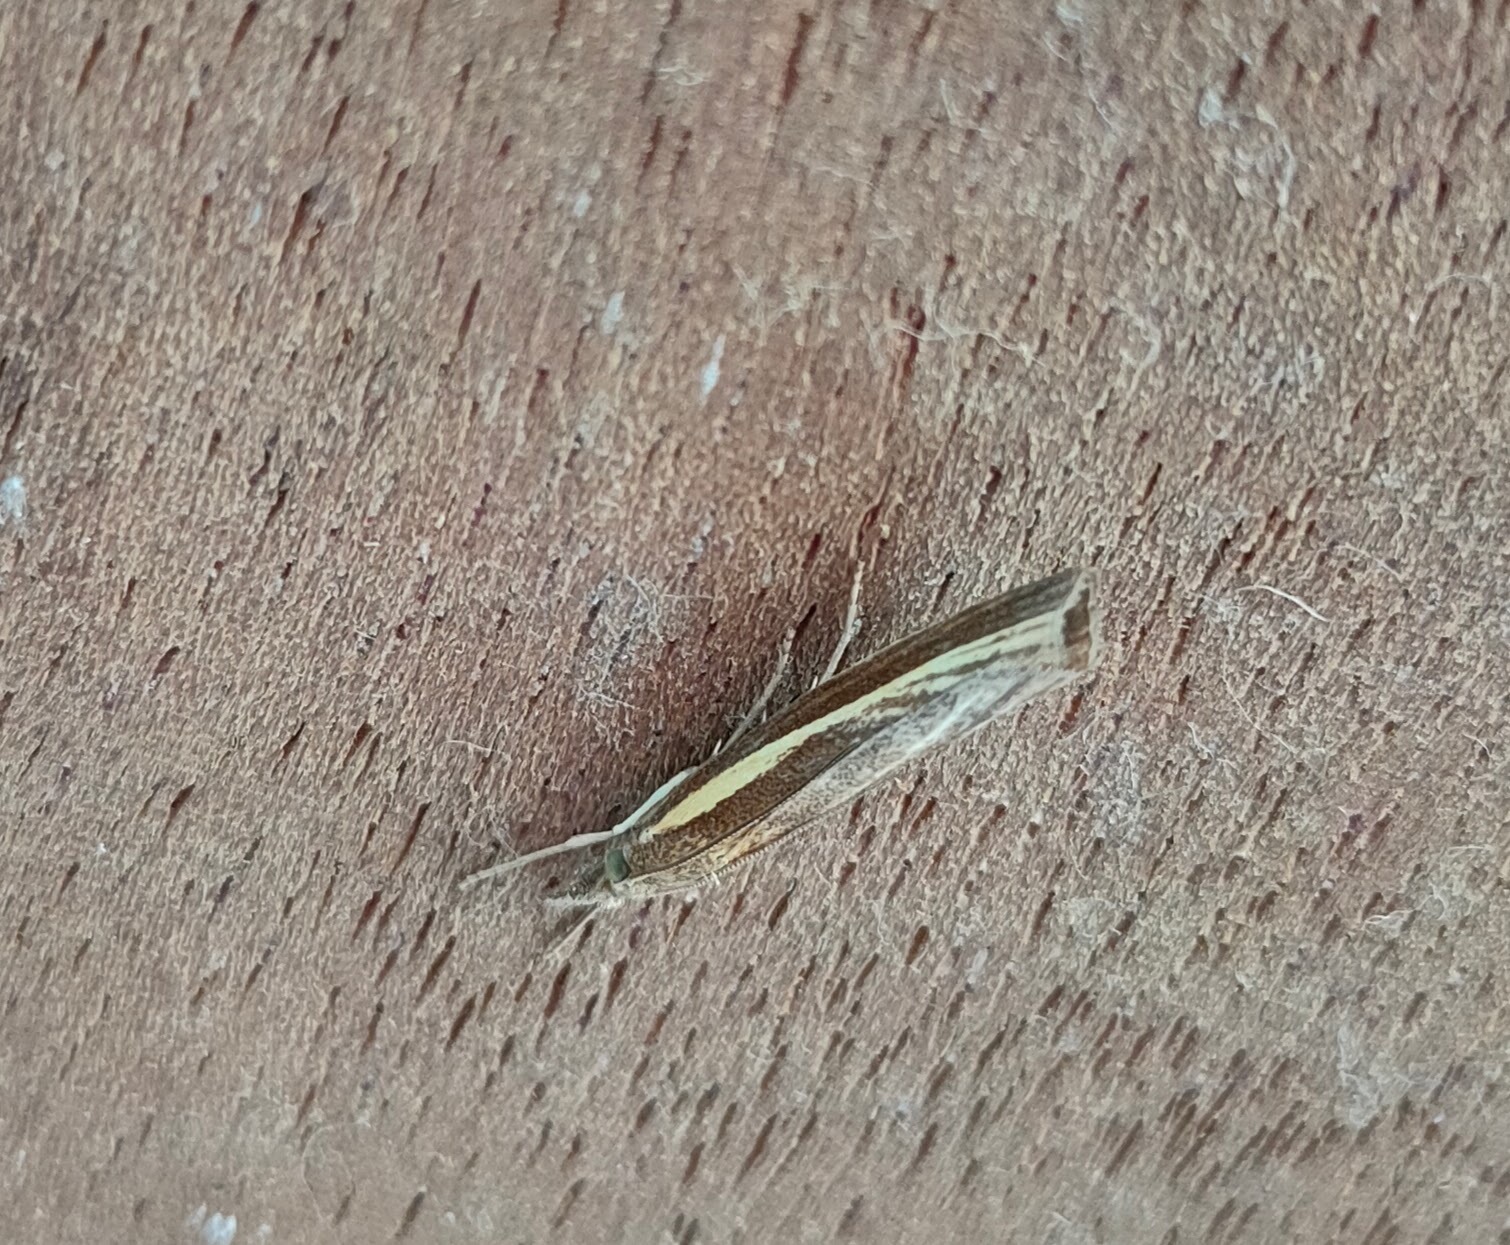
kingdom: Animalia
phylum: Arthropoda
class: Insecta
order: Lepidoptera
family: Crambidae
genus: Agriphila
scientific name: Agriphila tristellus
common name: Common grass-veneer
